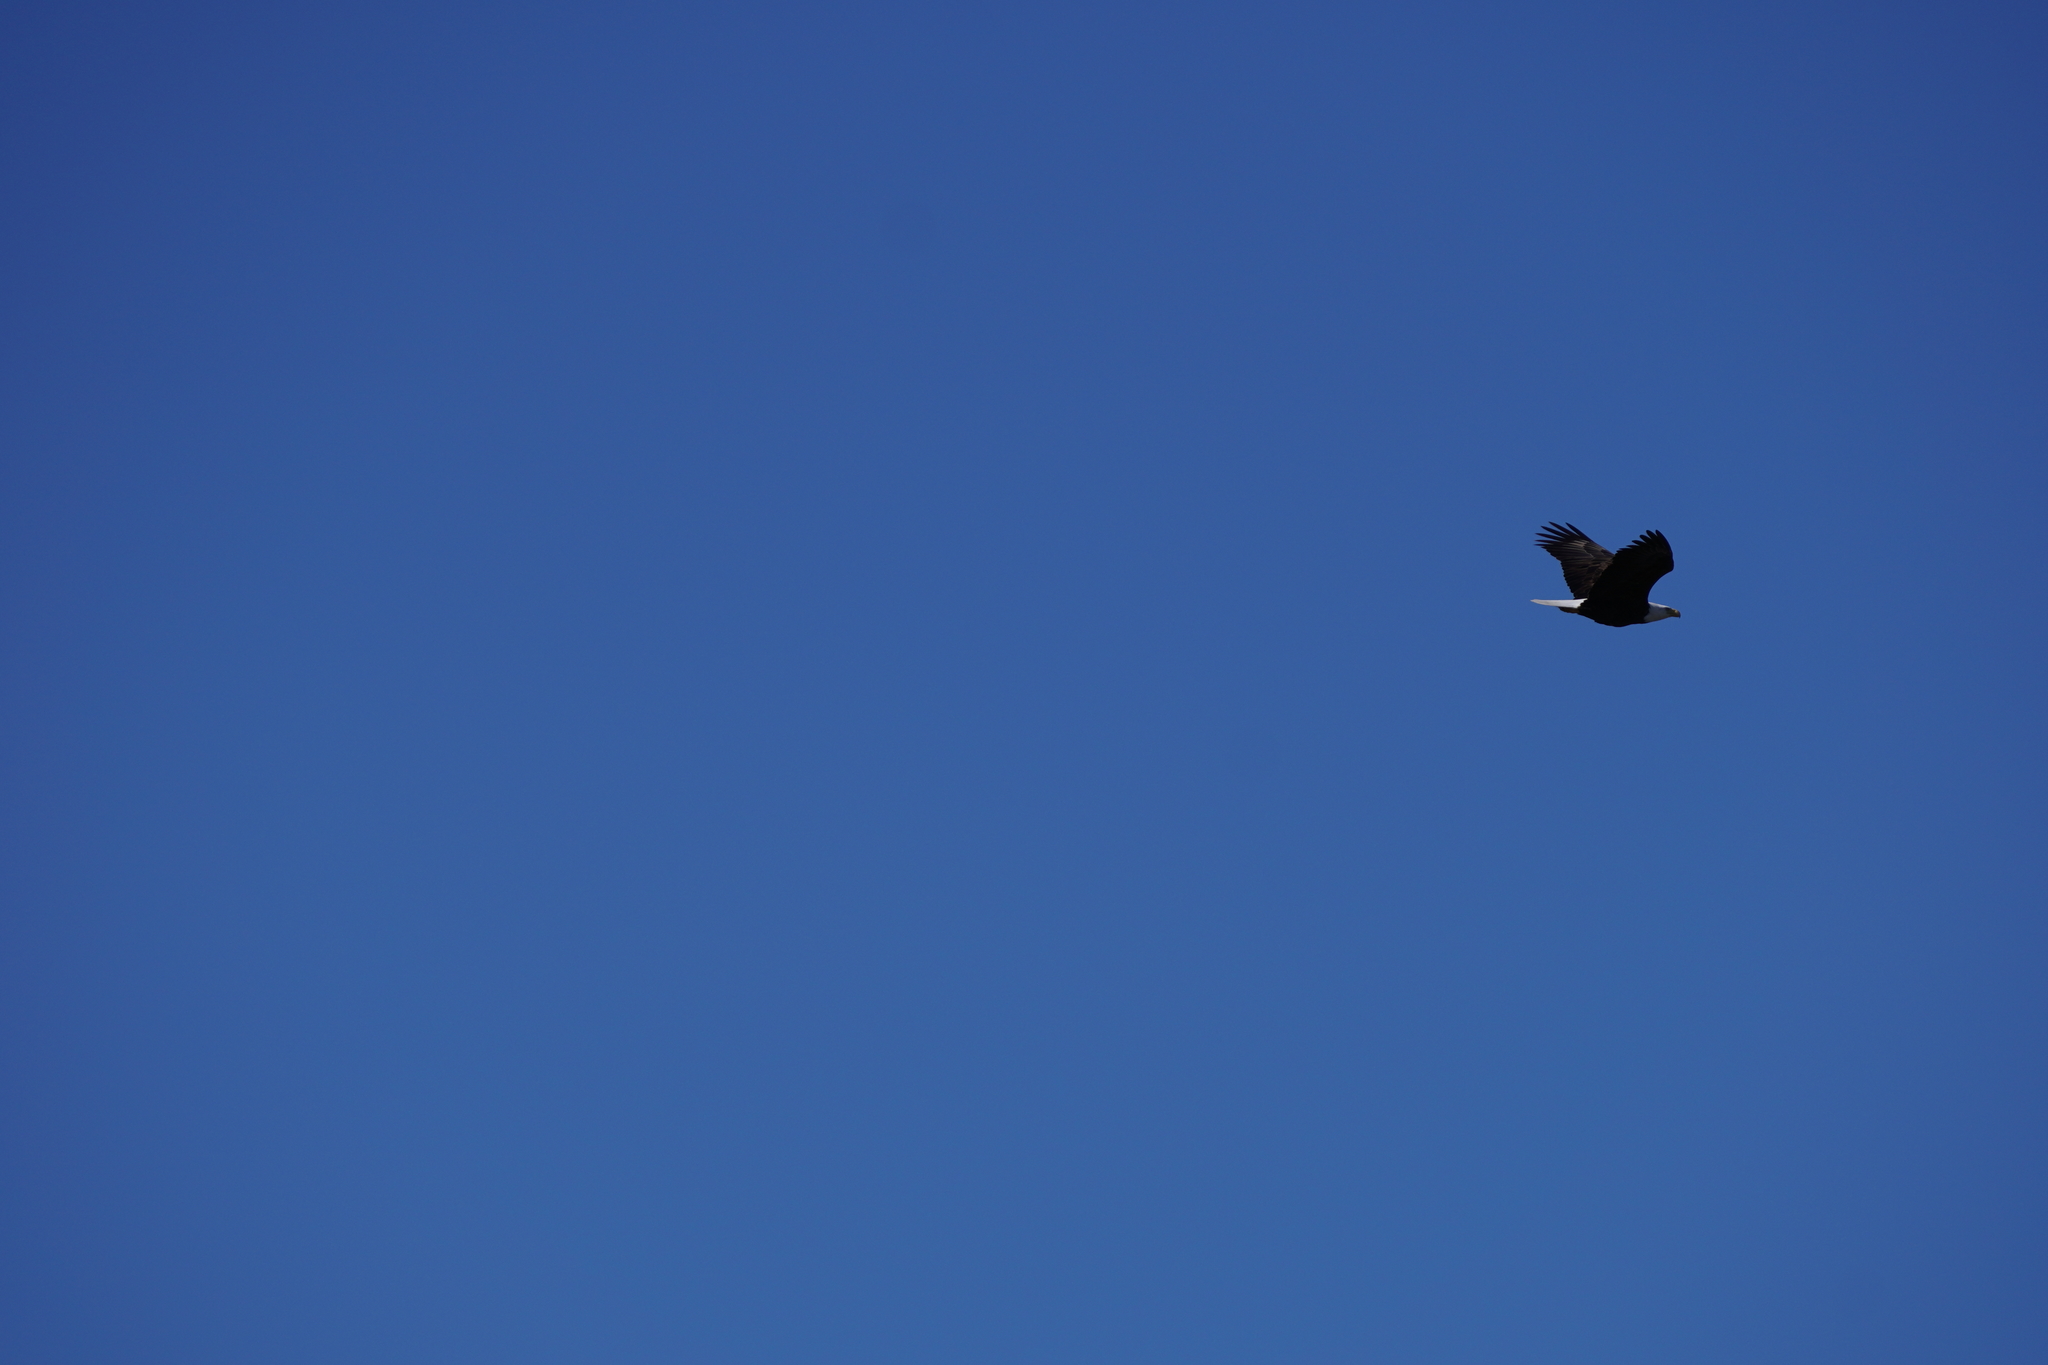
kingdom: Animalia
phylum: Chordata
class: Aves
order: Accipitriformes
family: Accipitridae
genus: Haliaeetus
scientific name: Haliaeetus leucocephalus
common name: Bald eagle
